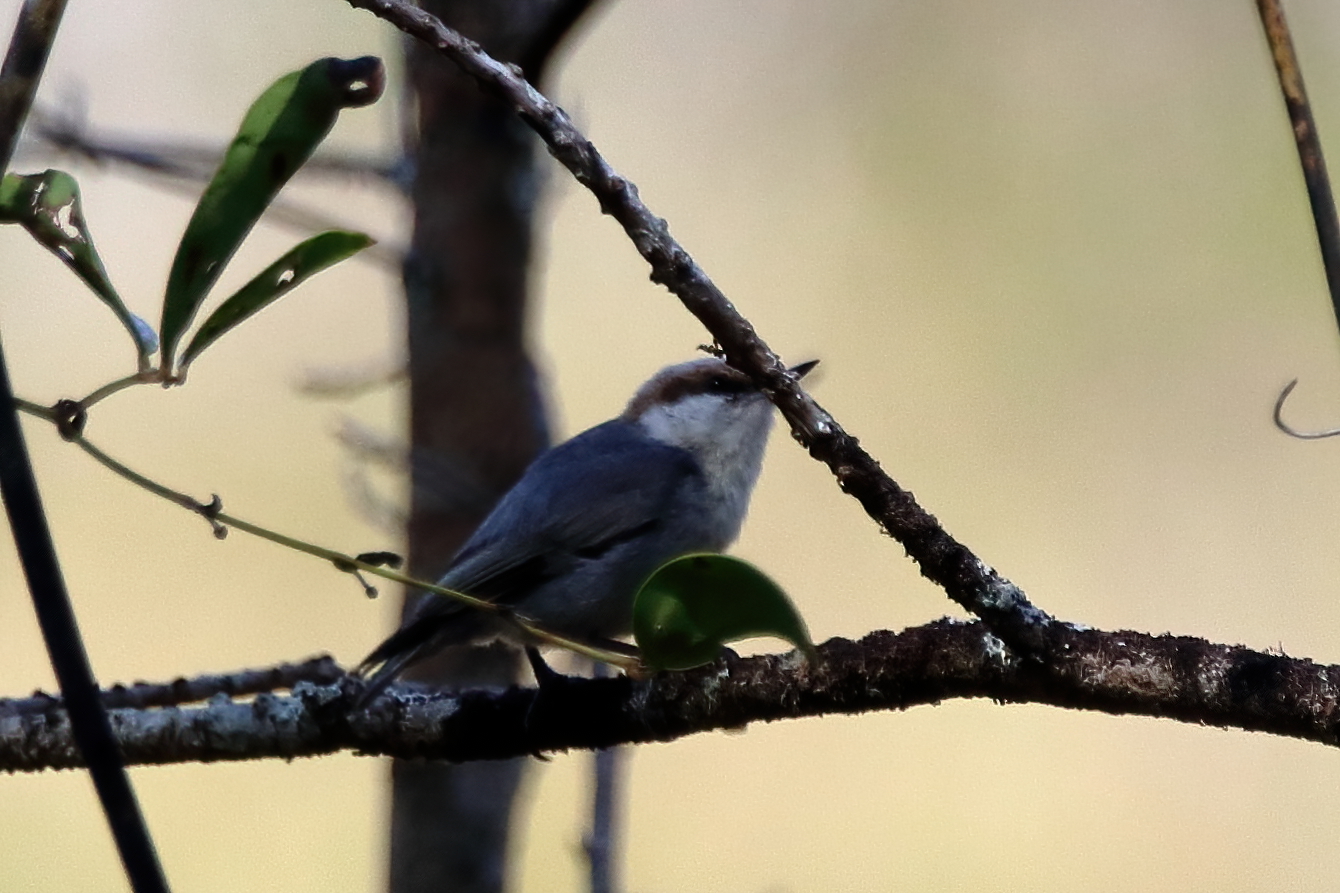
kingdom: Animalia
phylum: Chordata
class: Aves
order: Passeriformes
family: Sittidae
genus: Sitta
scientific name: Sitta pusilla
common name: Brown-headed nuthatch
